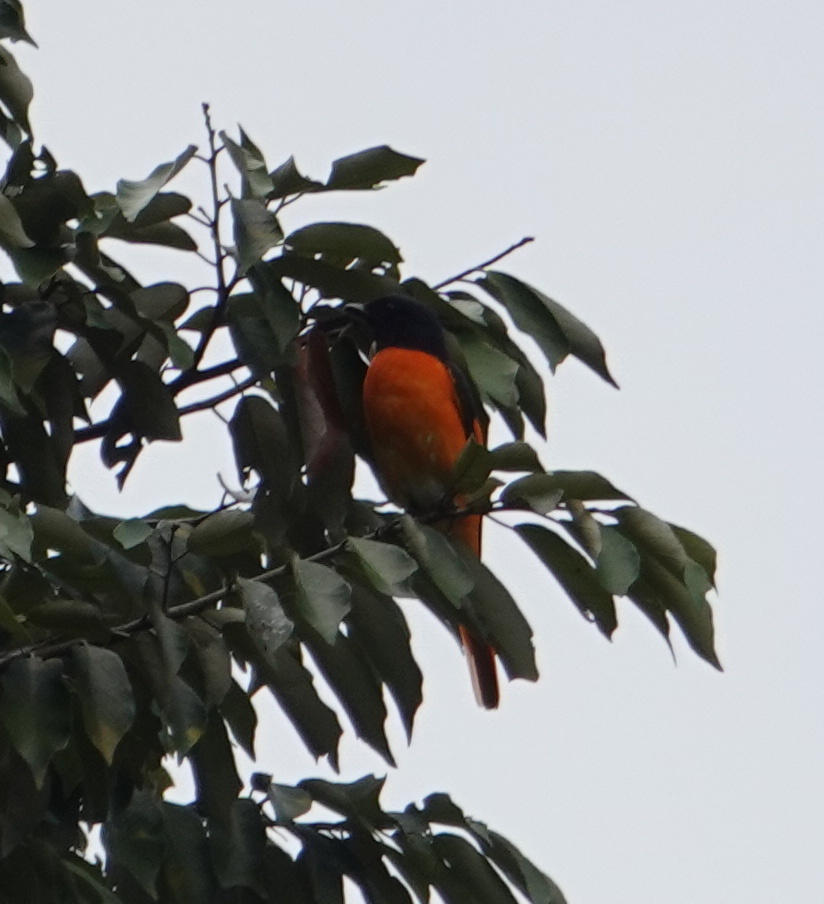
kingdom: Animalia
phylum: Chordata
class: Aves
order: Passeriformes
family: Campephagidae
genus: Pericrocotus
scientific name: Pericrocotus flammeus
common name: Orange minivet
